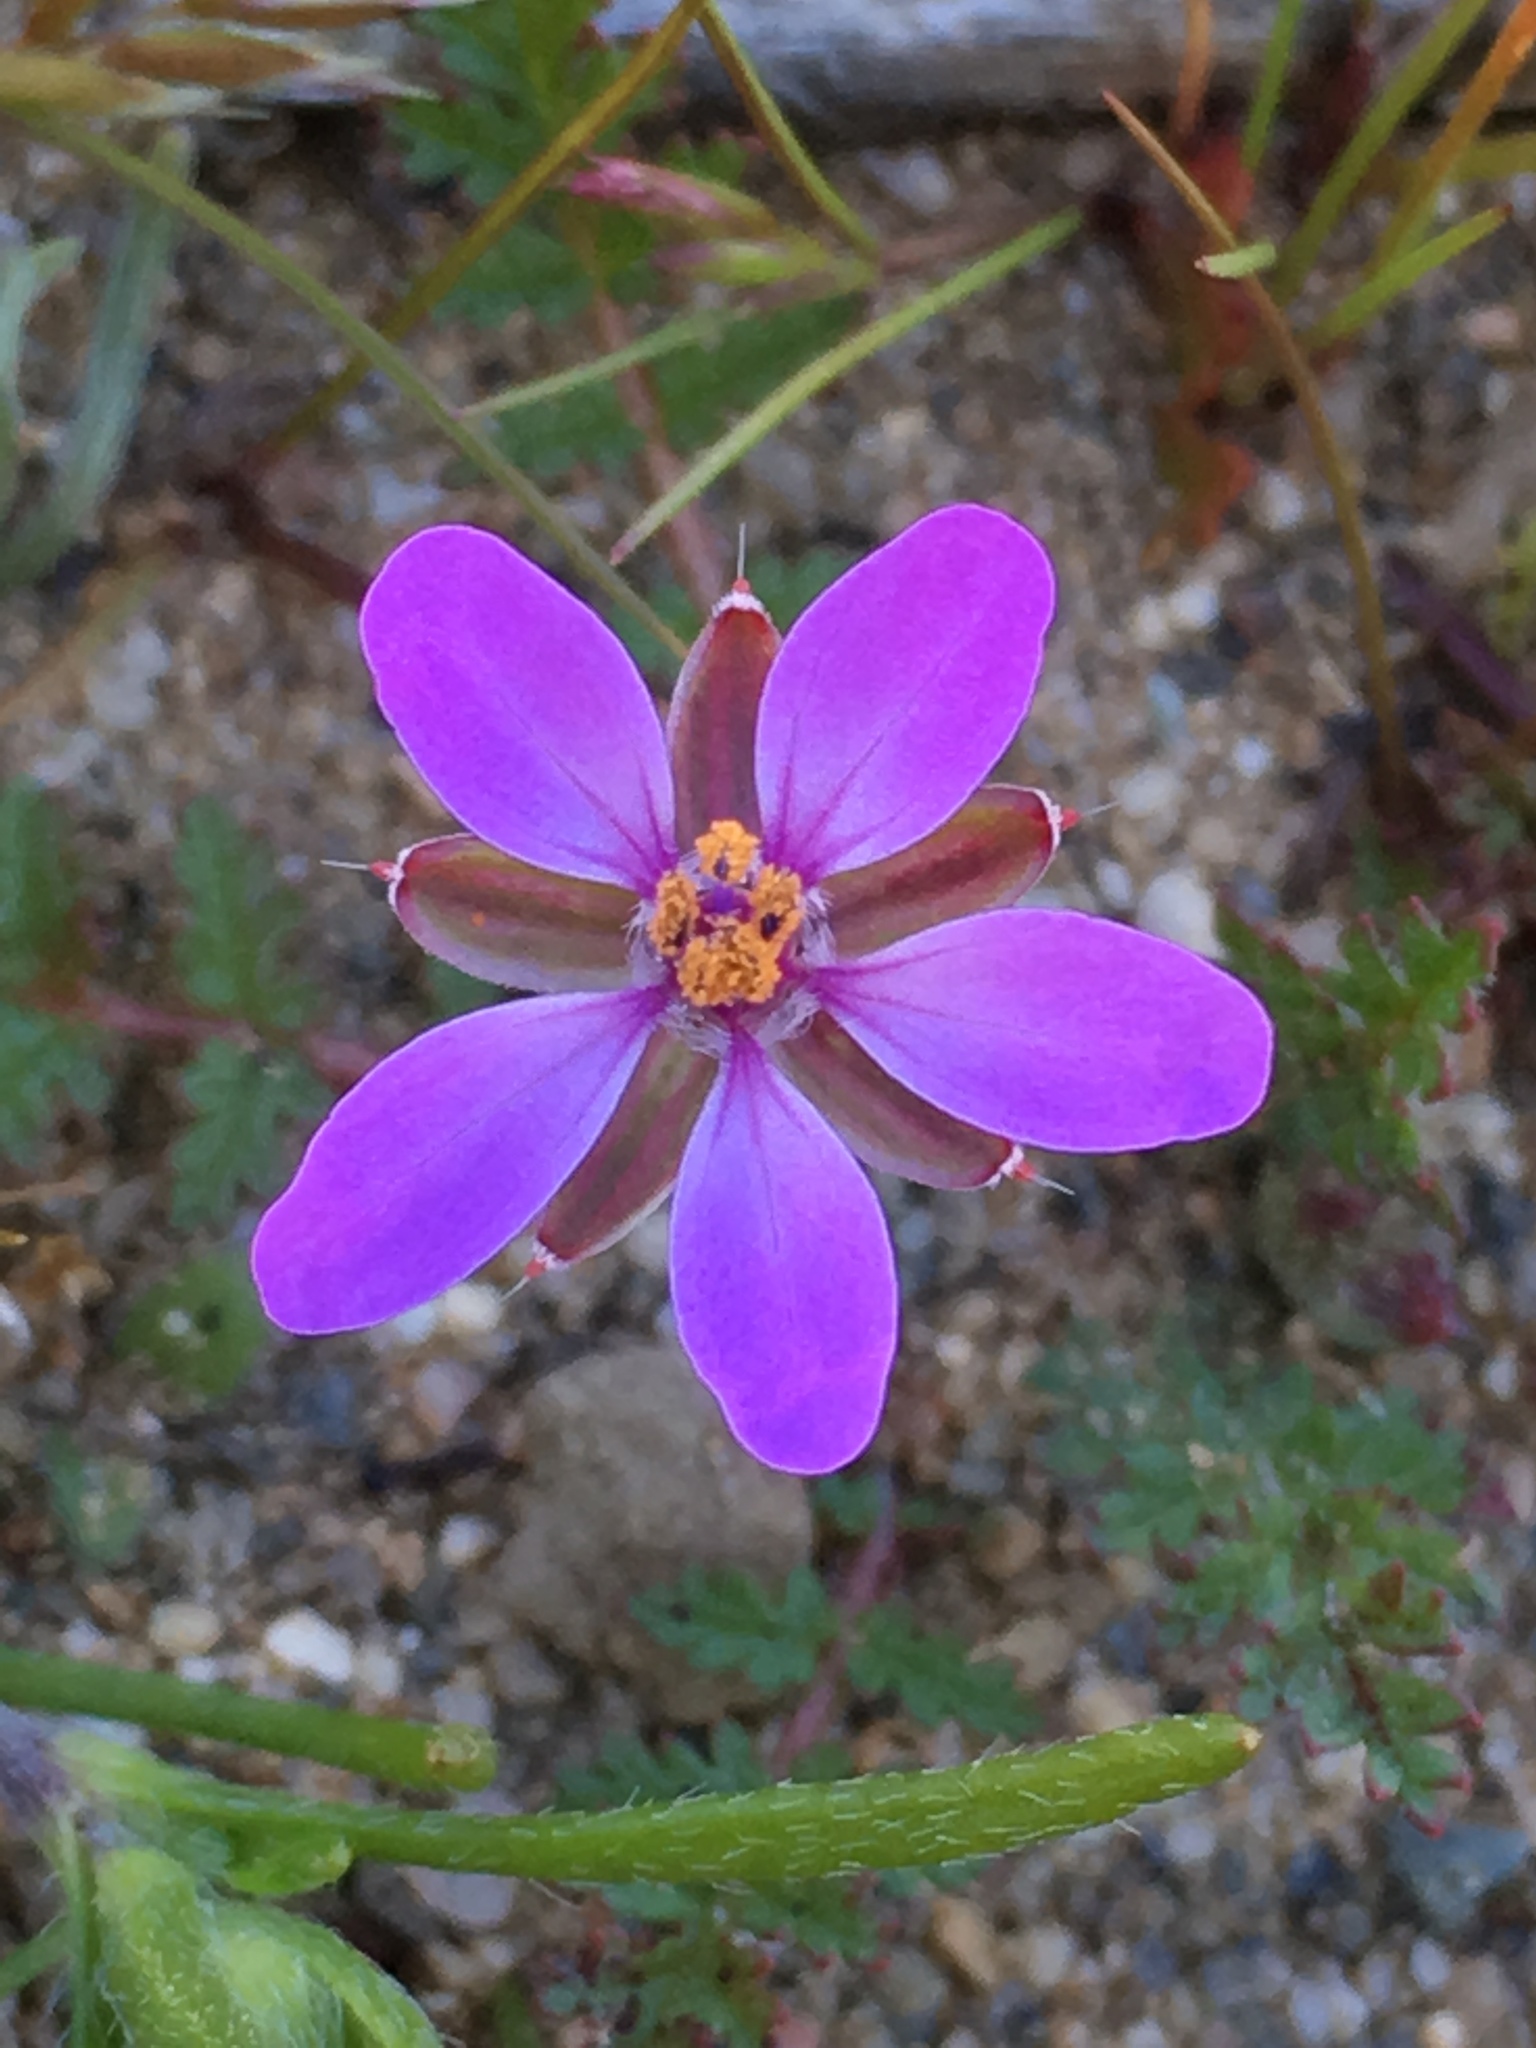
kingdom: Plantae
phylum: Tracheophyta
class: Magnoliopsida
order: Geraniales
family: Geraniaceae
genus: Erodium
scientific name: Erodium cicutarium
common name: Common stork's-bill
